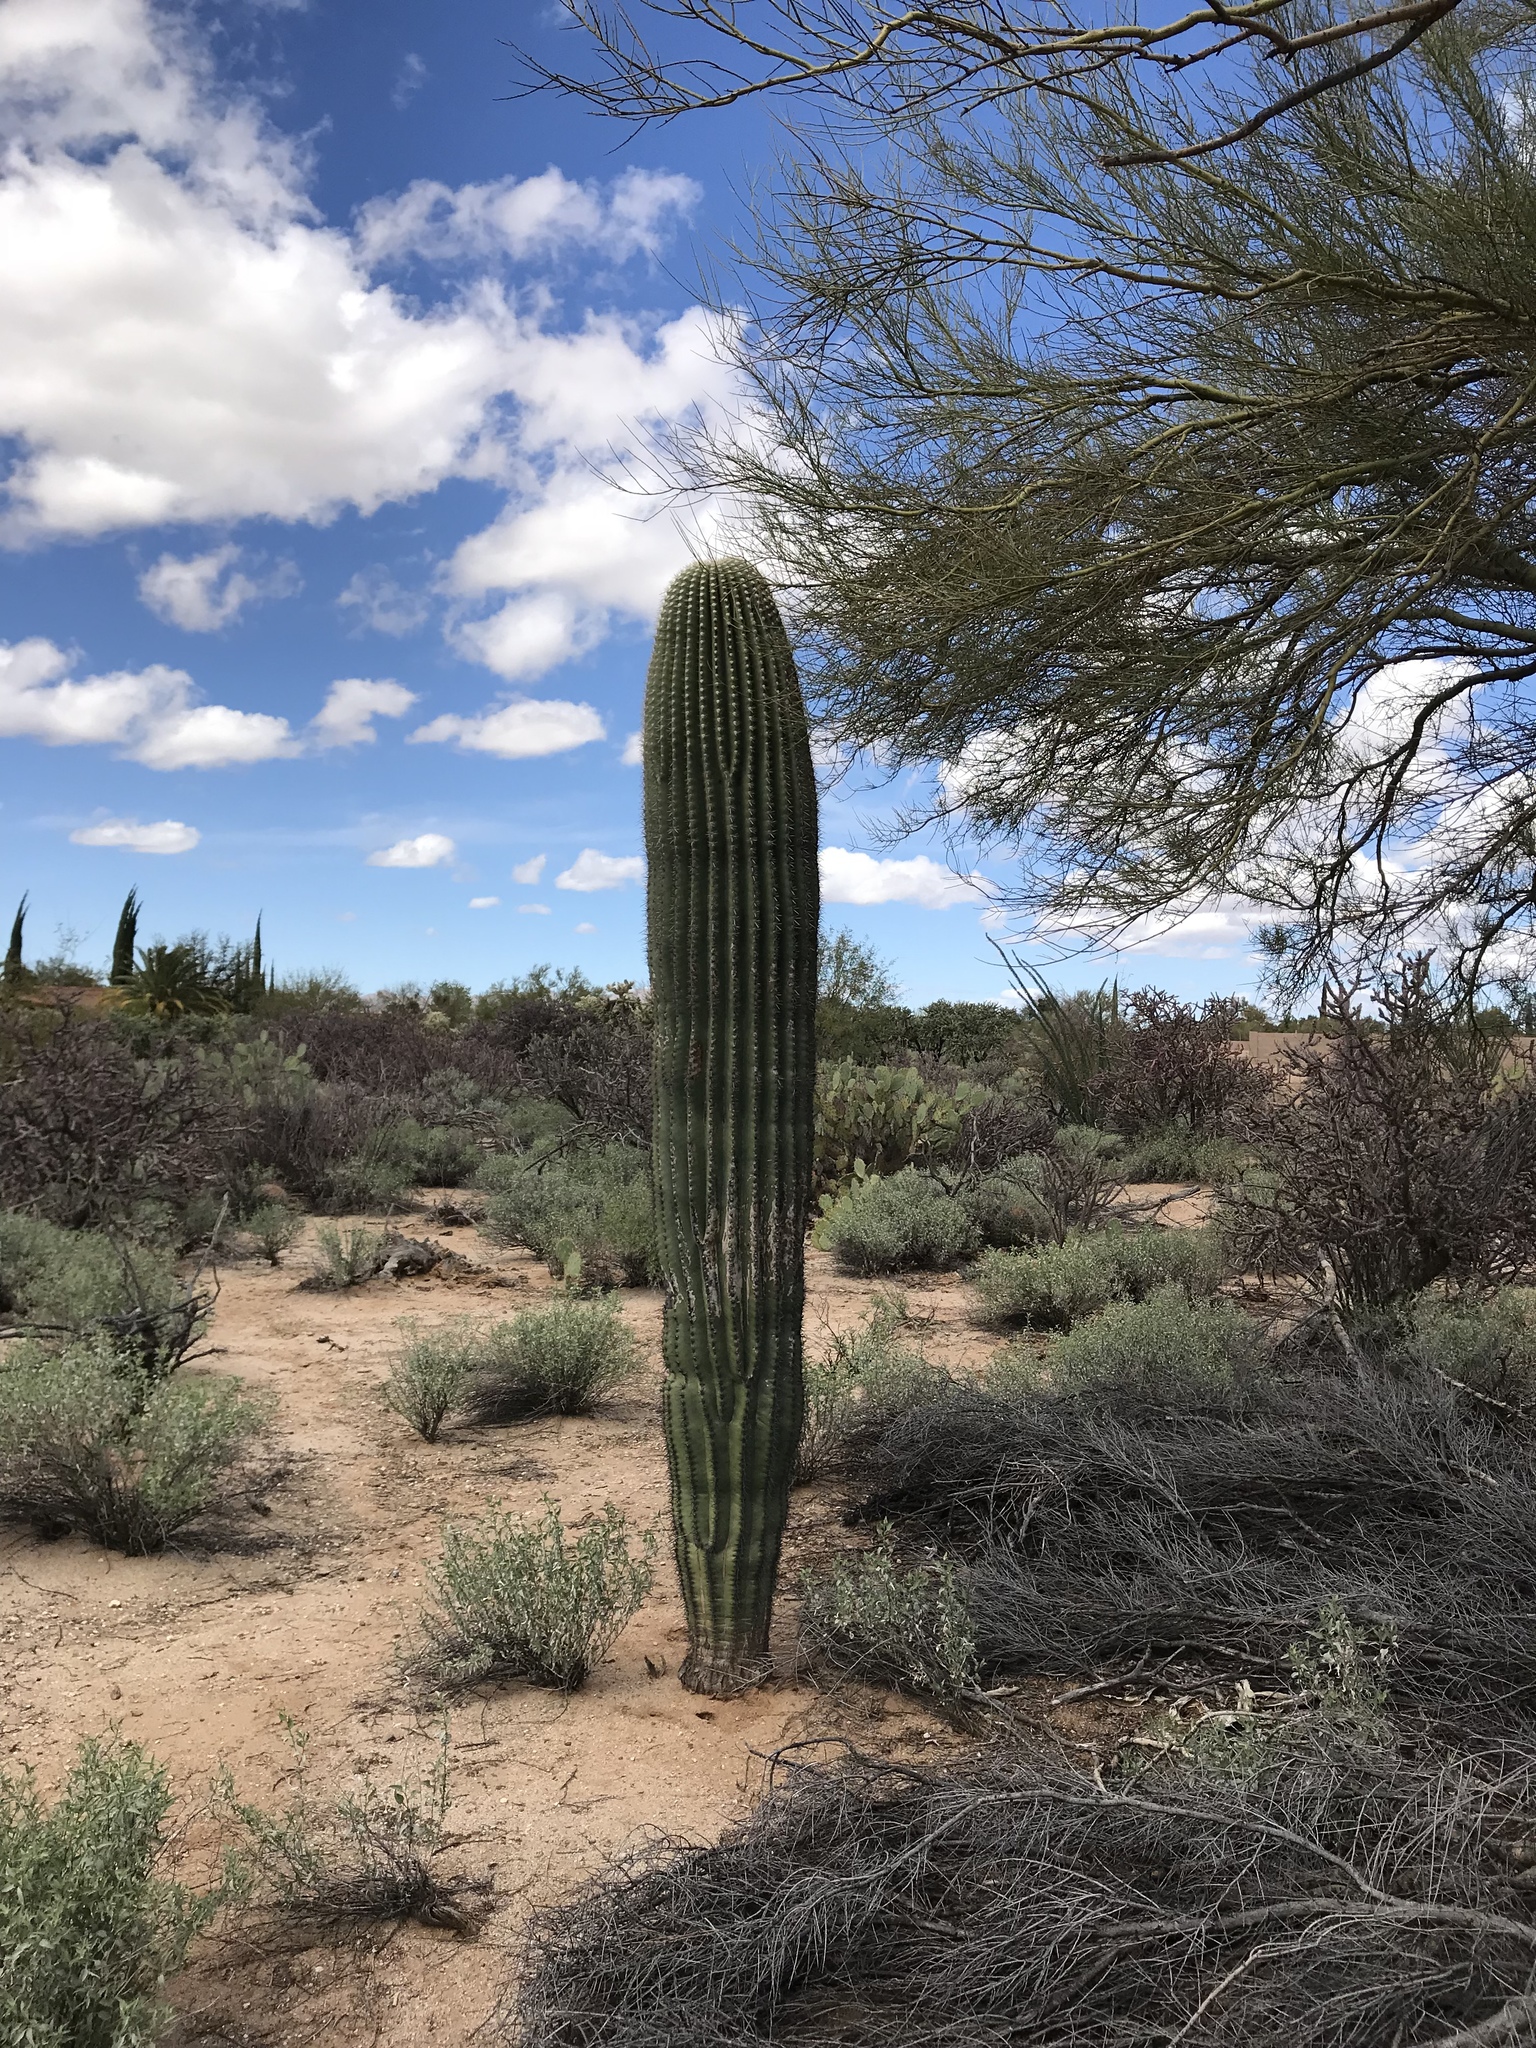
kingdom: Plantae
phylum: Tracheophyta
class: Magnoliopsida
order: Caryophyllales
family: Cactaceae
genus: Carnegiea
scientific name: Carnegiea gigantea
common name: Saguaro
